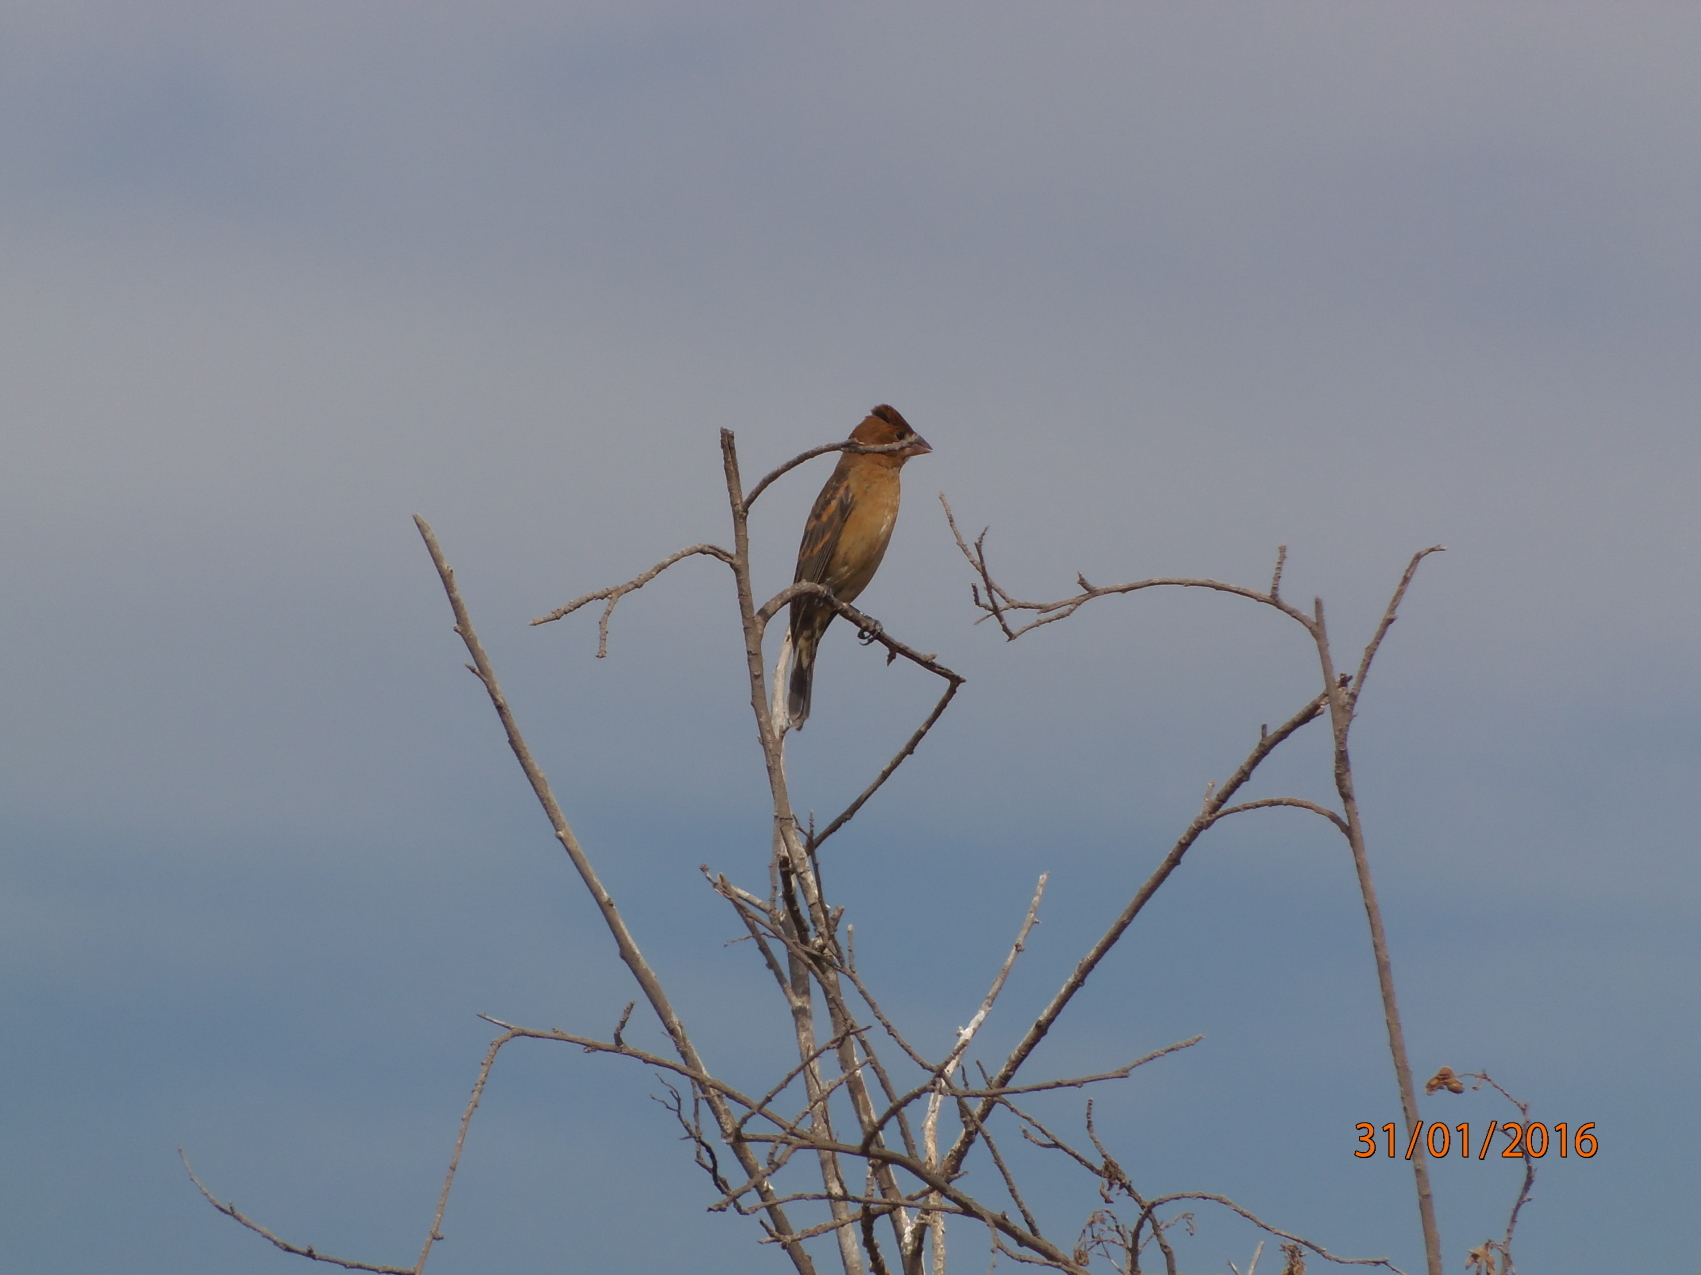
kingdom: Animalia
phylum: Chordata
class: Aves
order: Passeriformes
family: Cardinalidae
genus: Passerina
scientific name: Passerina caerulea
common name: Blue grosbeak
